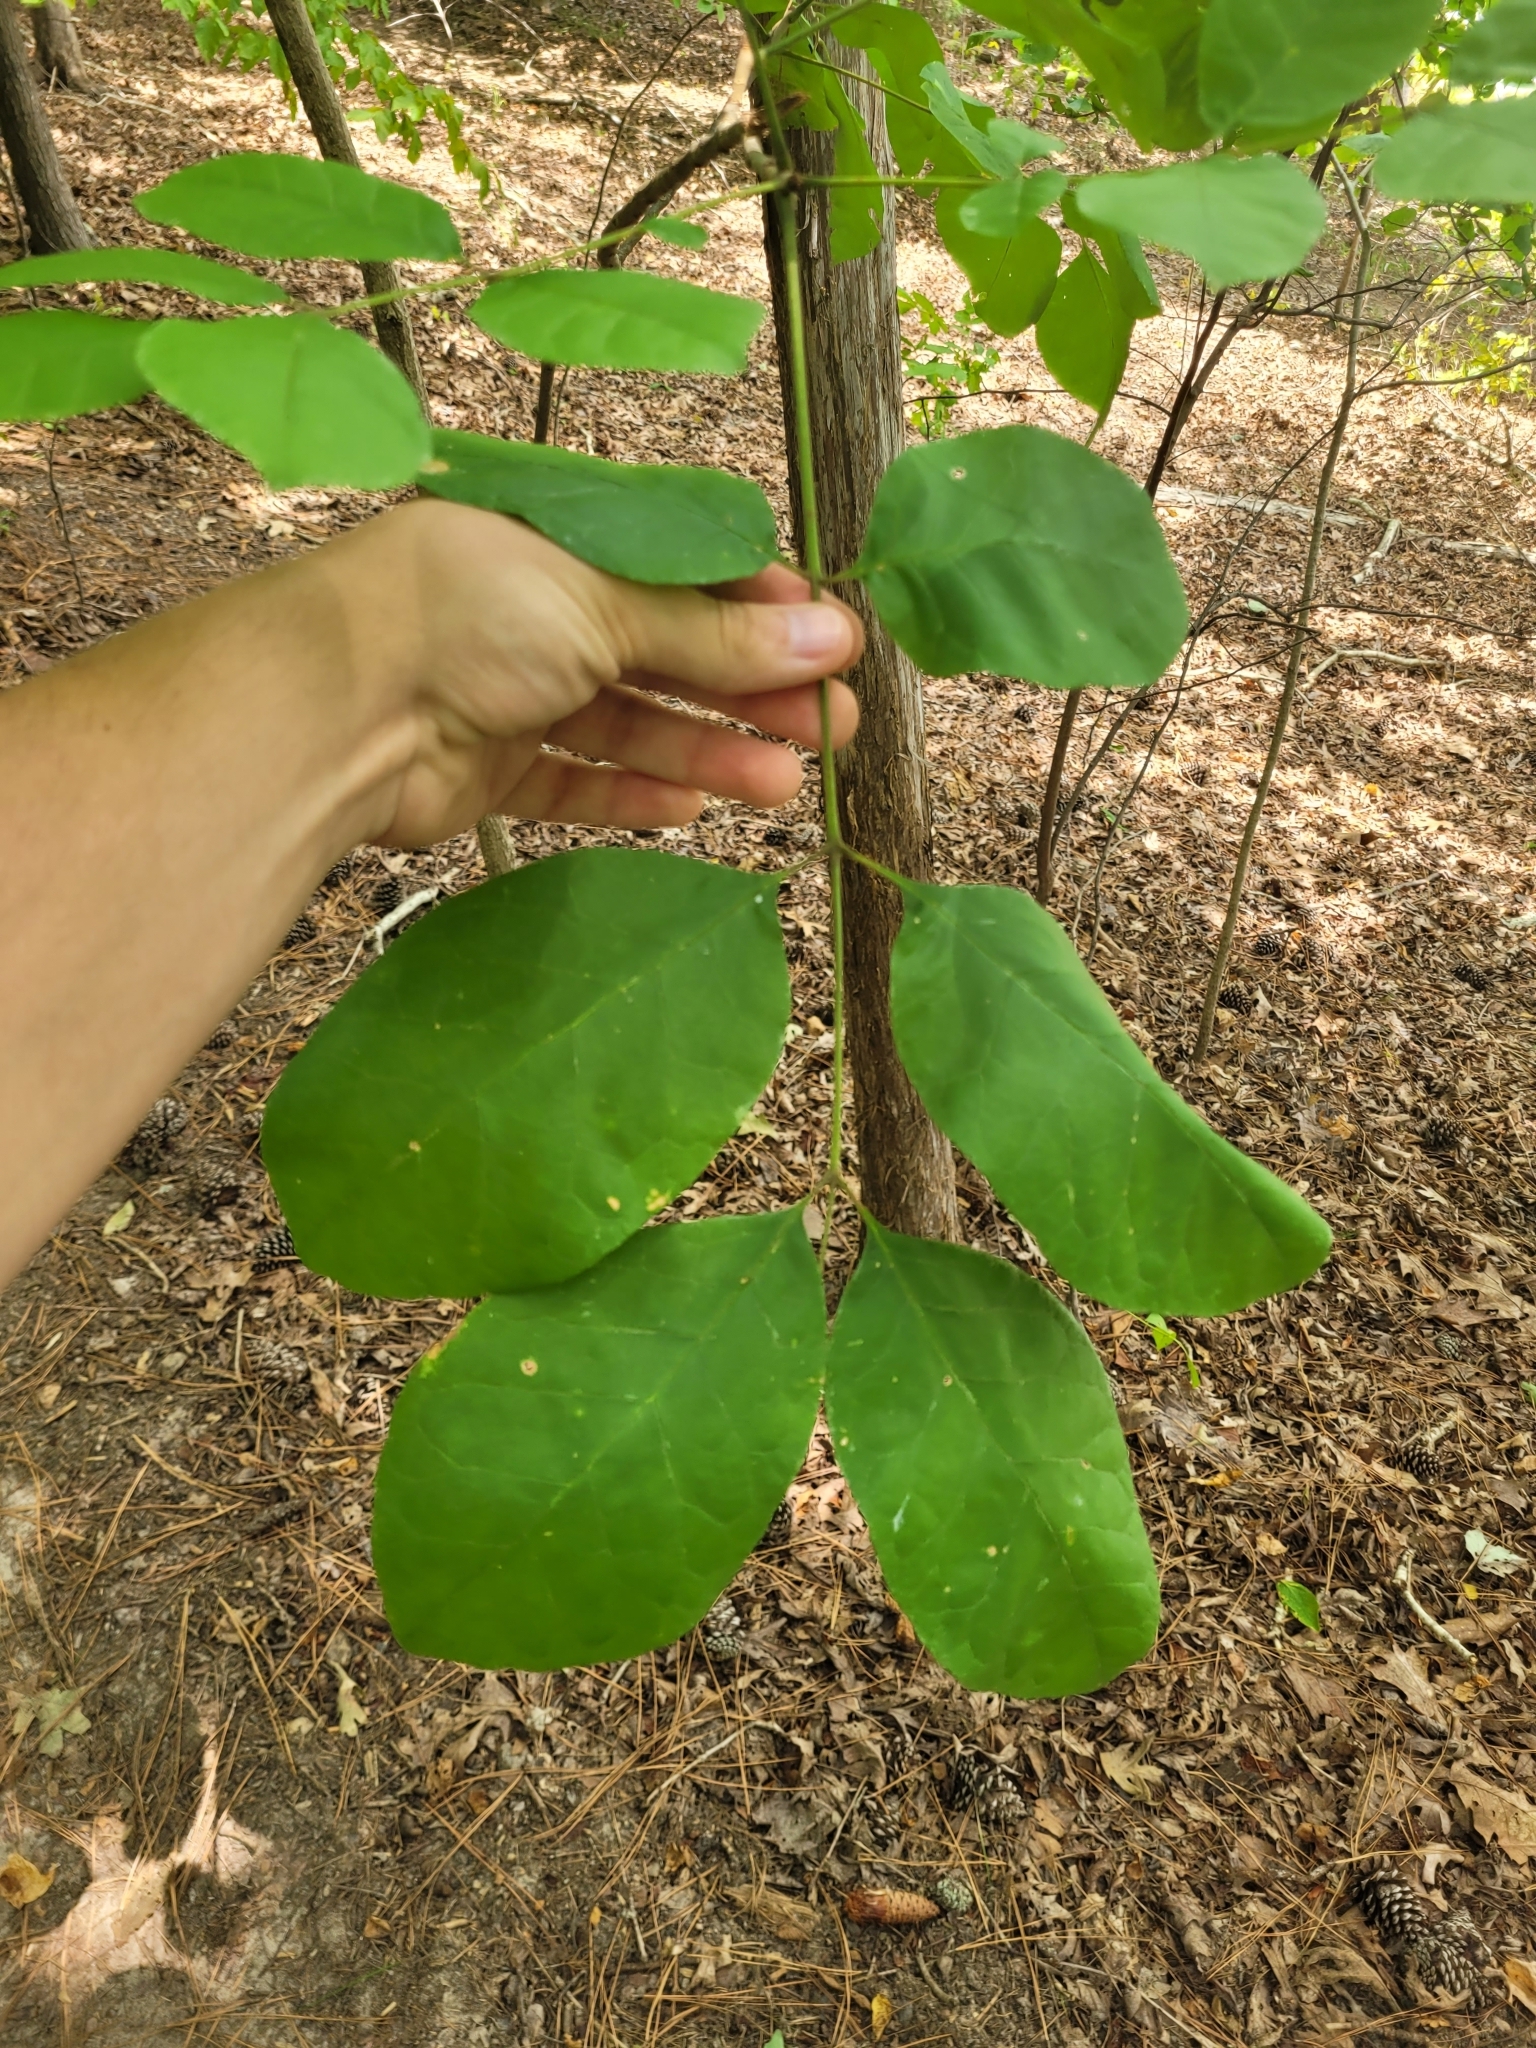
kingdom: Plantae
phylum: Tracheophyta
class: Magnoliopsida
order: Lamiales
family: Oleaceae
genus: Fraxinus
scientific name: Fraxinus americana
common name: White ash
